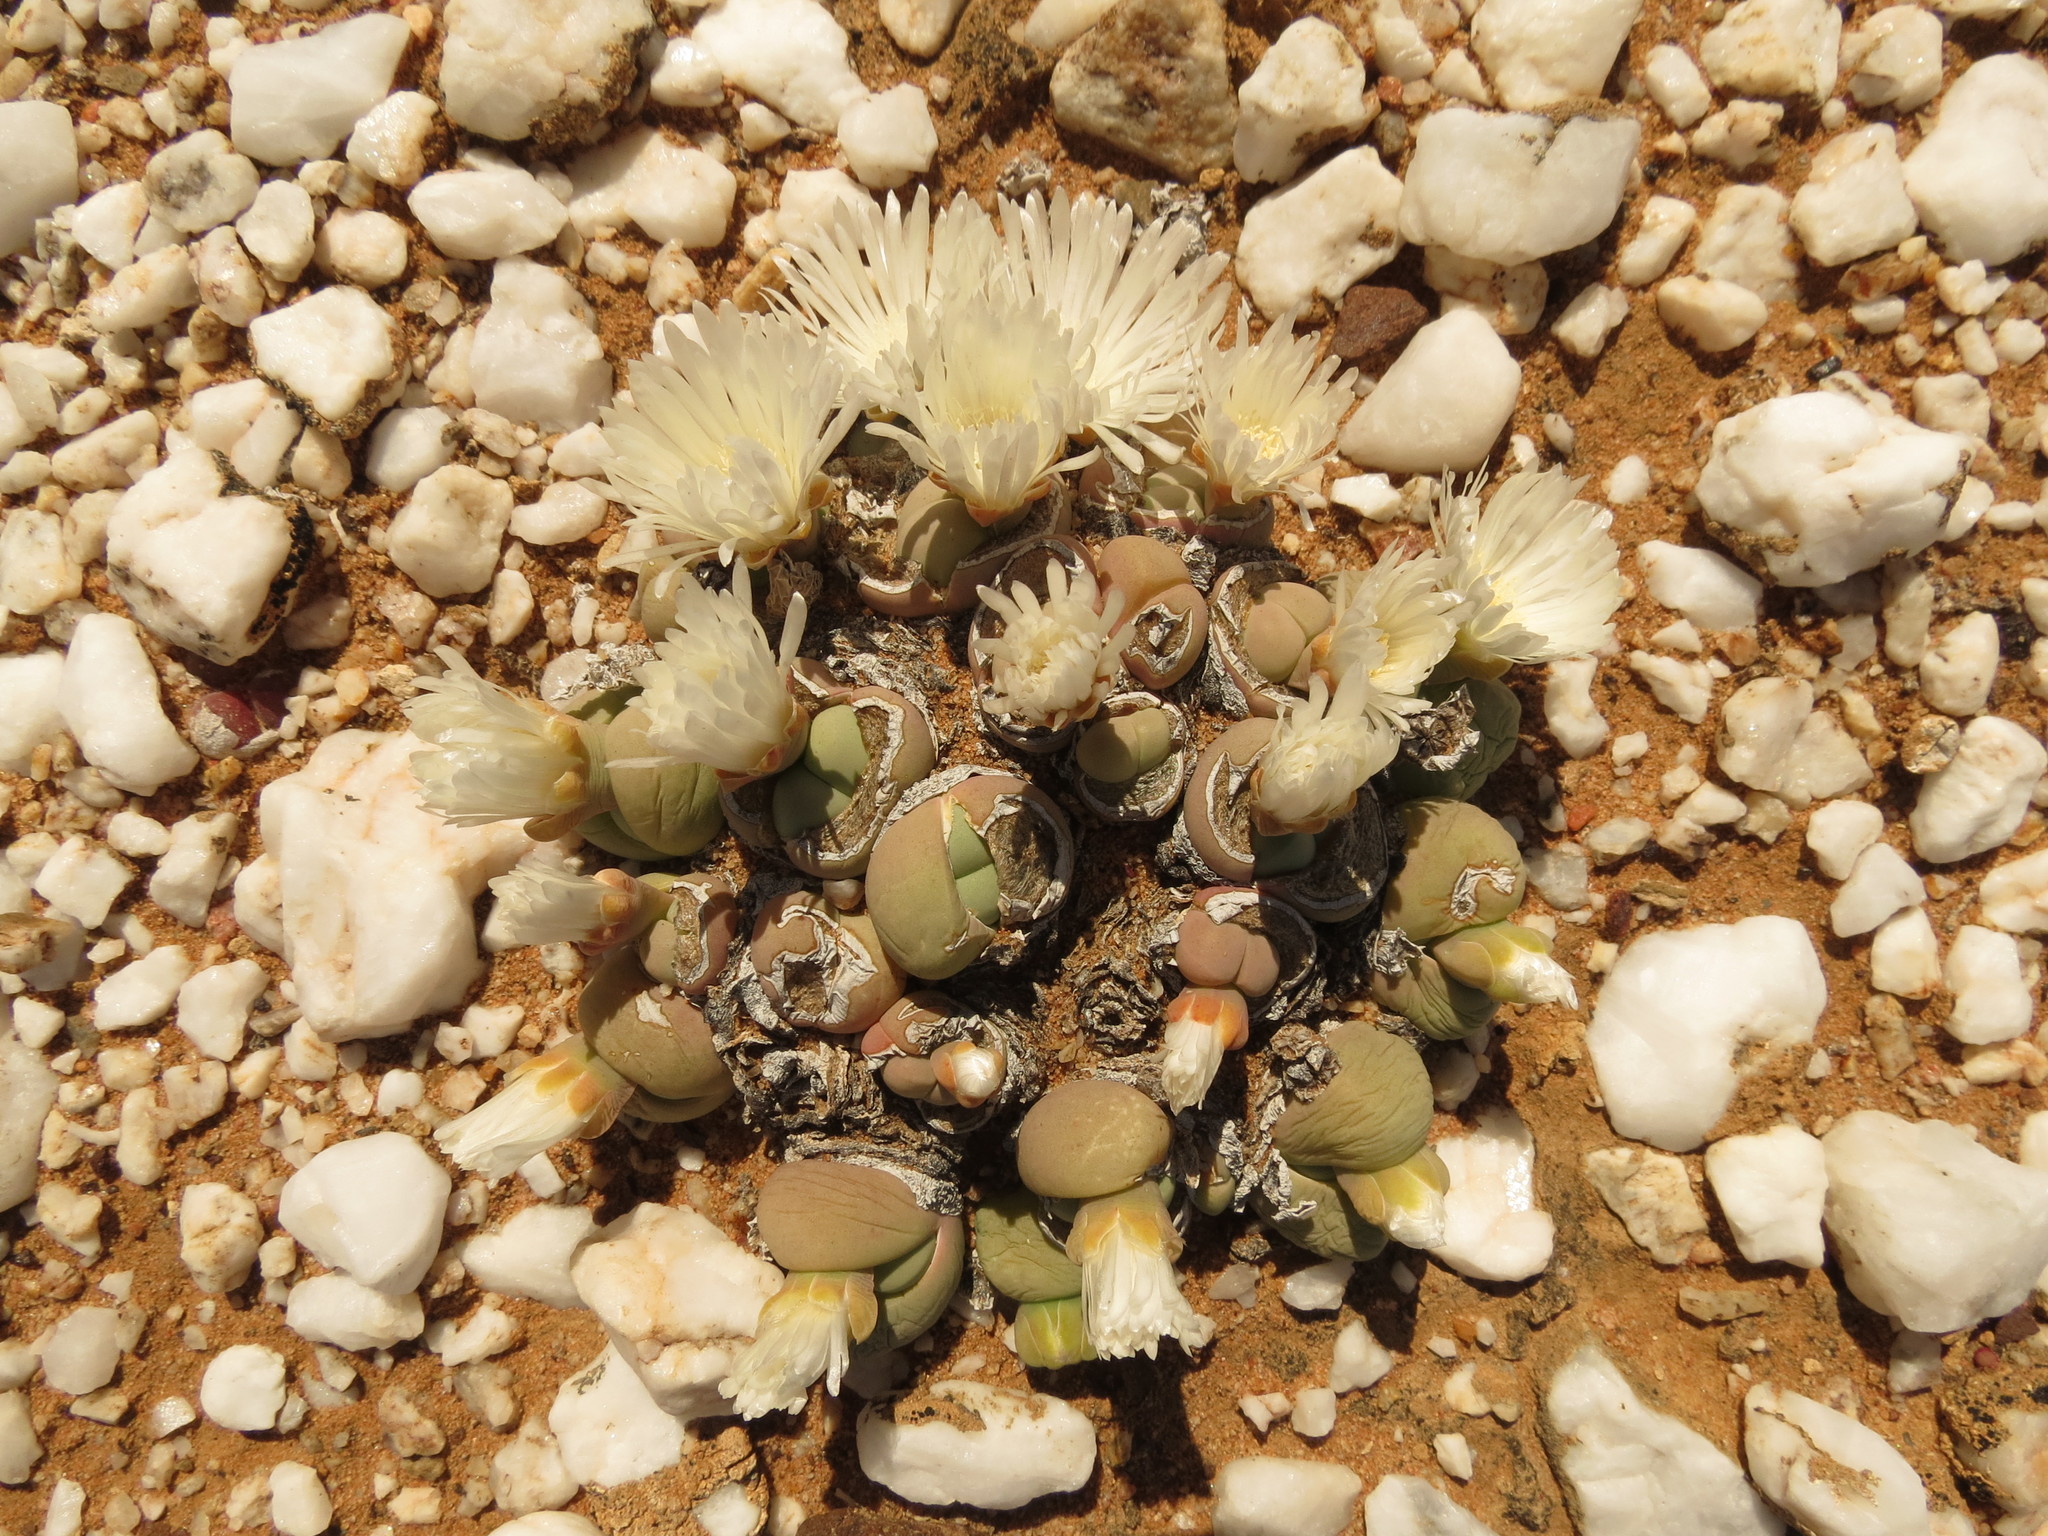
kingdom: Plantae
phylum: Tracheophyta
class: Magnoliopsida
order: Caryophyllales
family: Aizoaceae
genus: Gibbaeum
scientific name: Gibbaeum heathii
